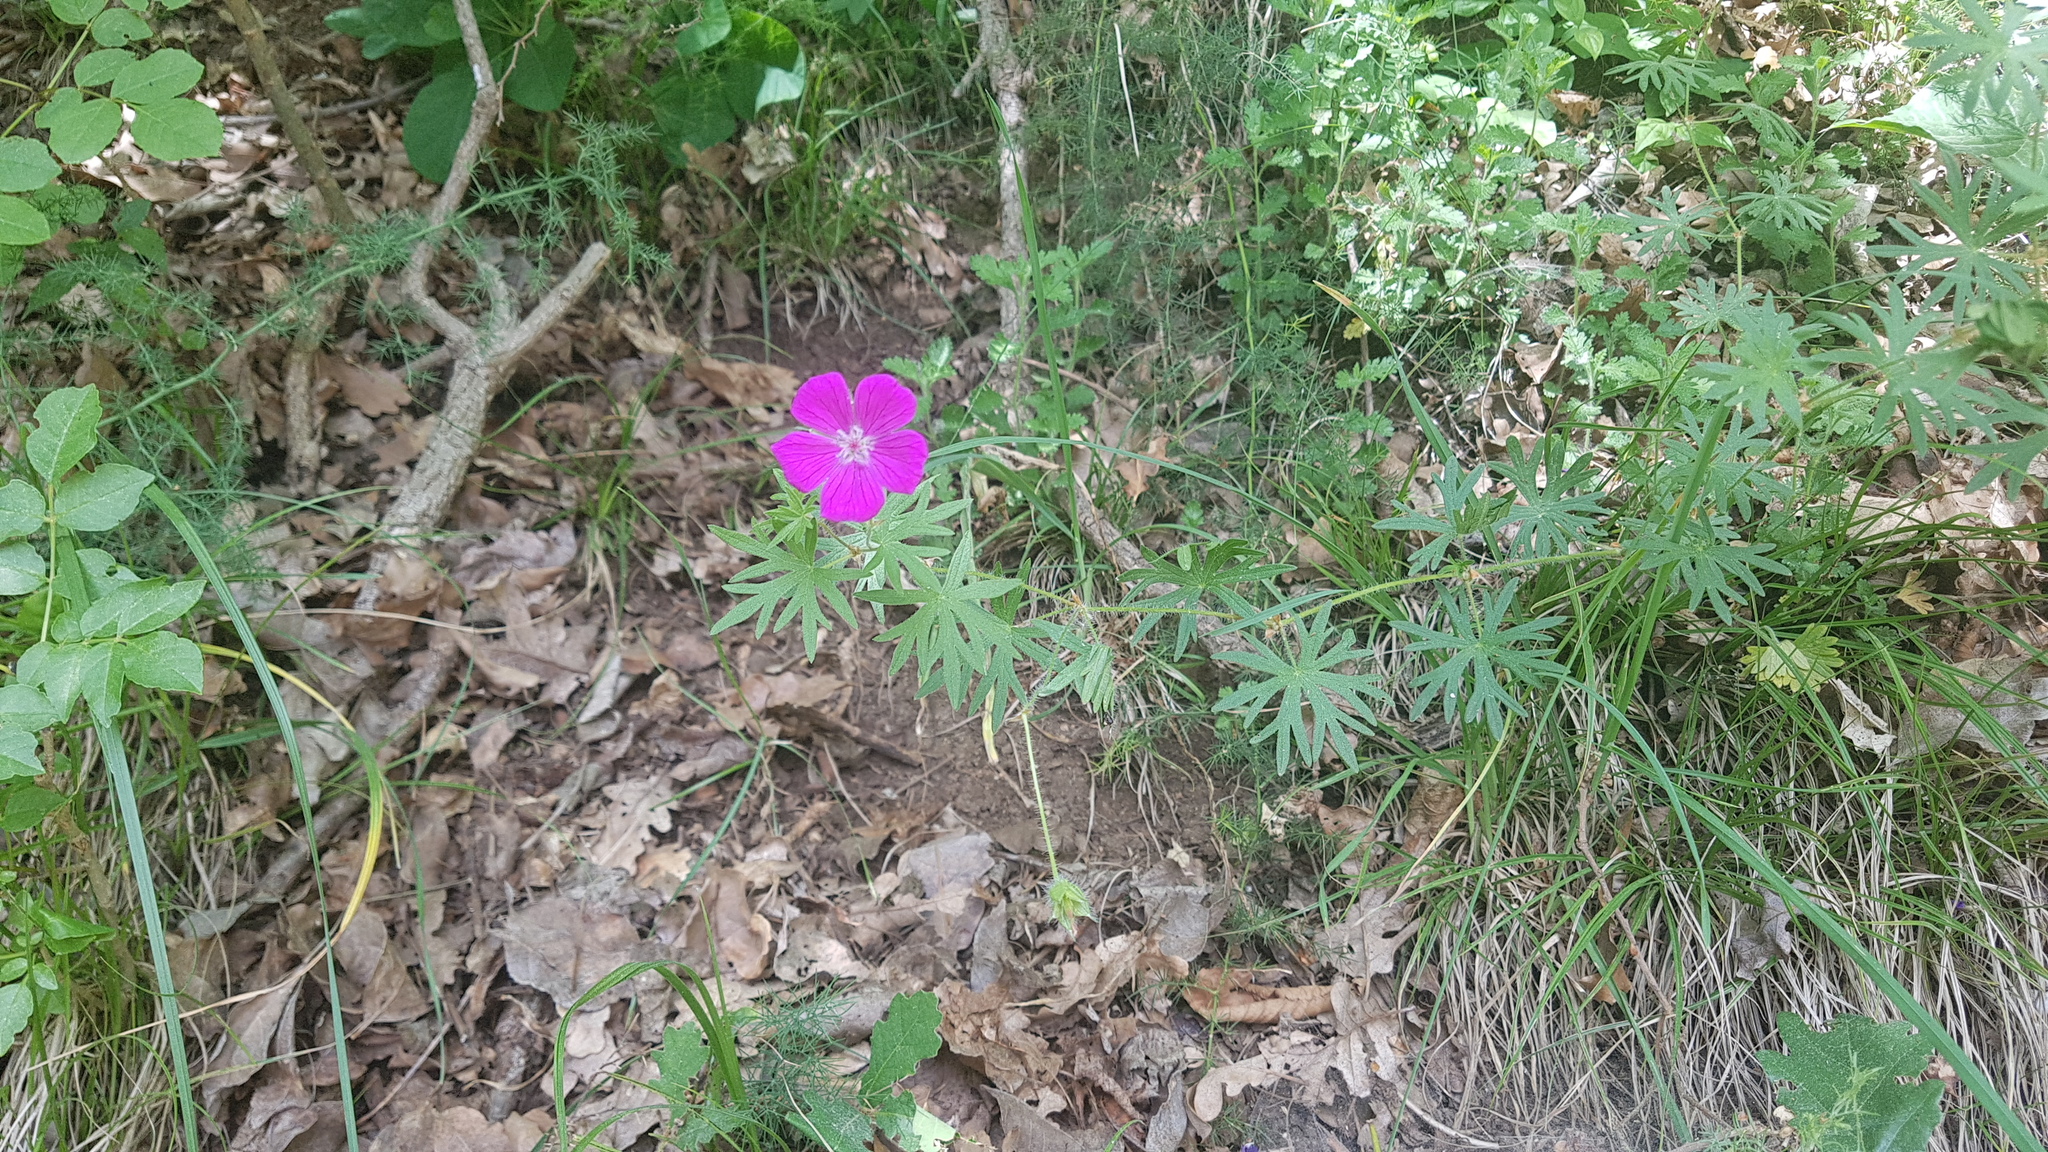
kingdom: Plantae
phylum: Tracheophyta
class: Magnoliopsida
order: Geraniales
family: Geraniaceae
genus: Geranium
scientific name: Geranium sanguineum
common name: Bloody crane's-bill
